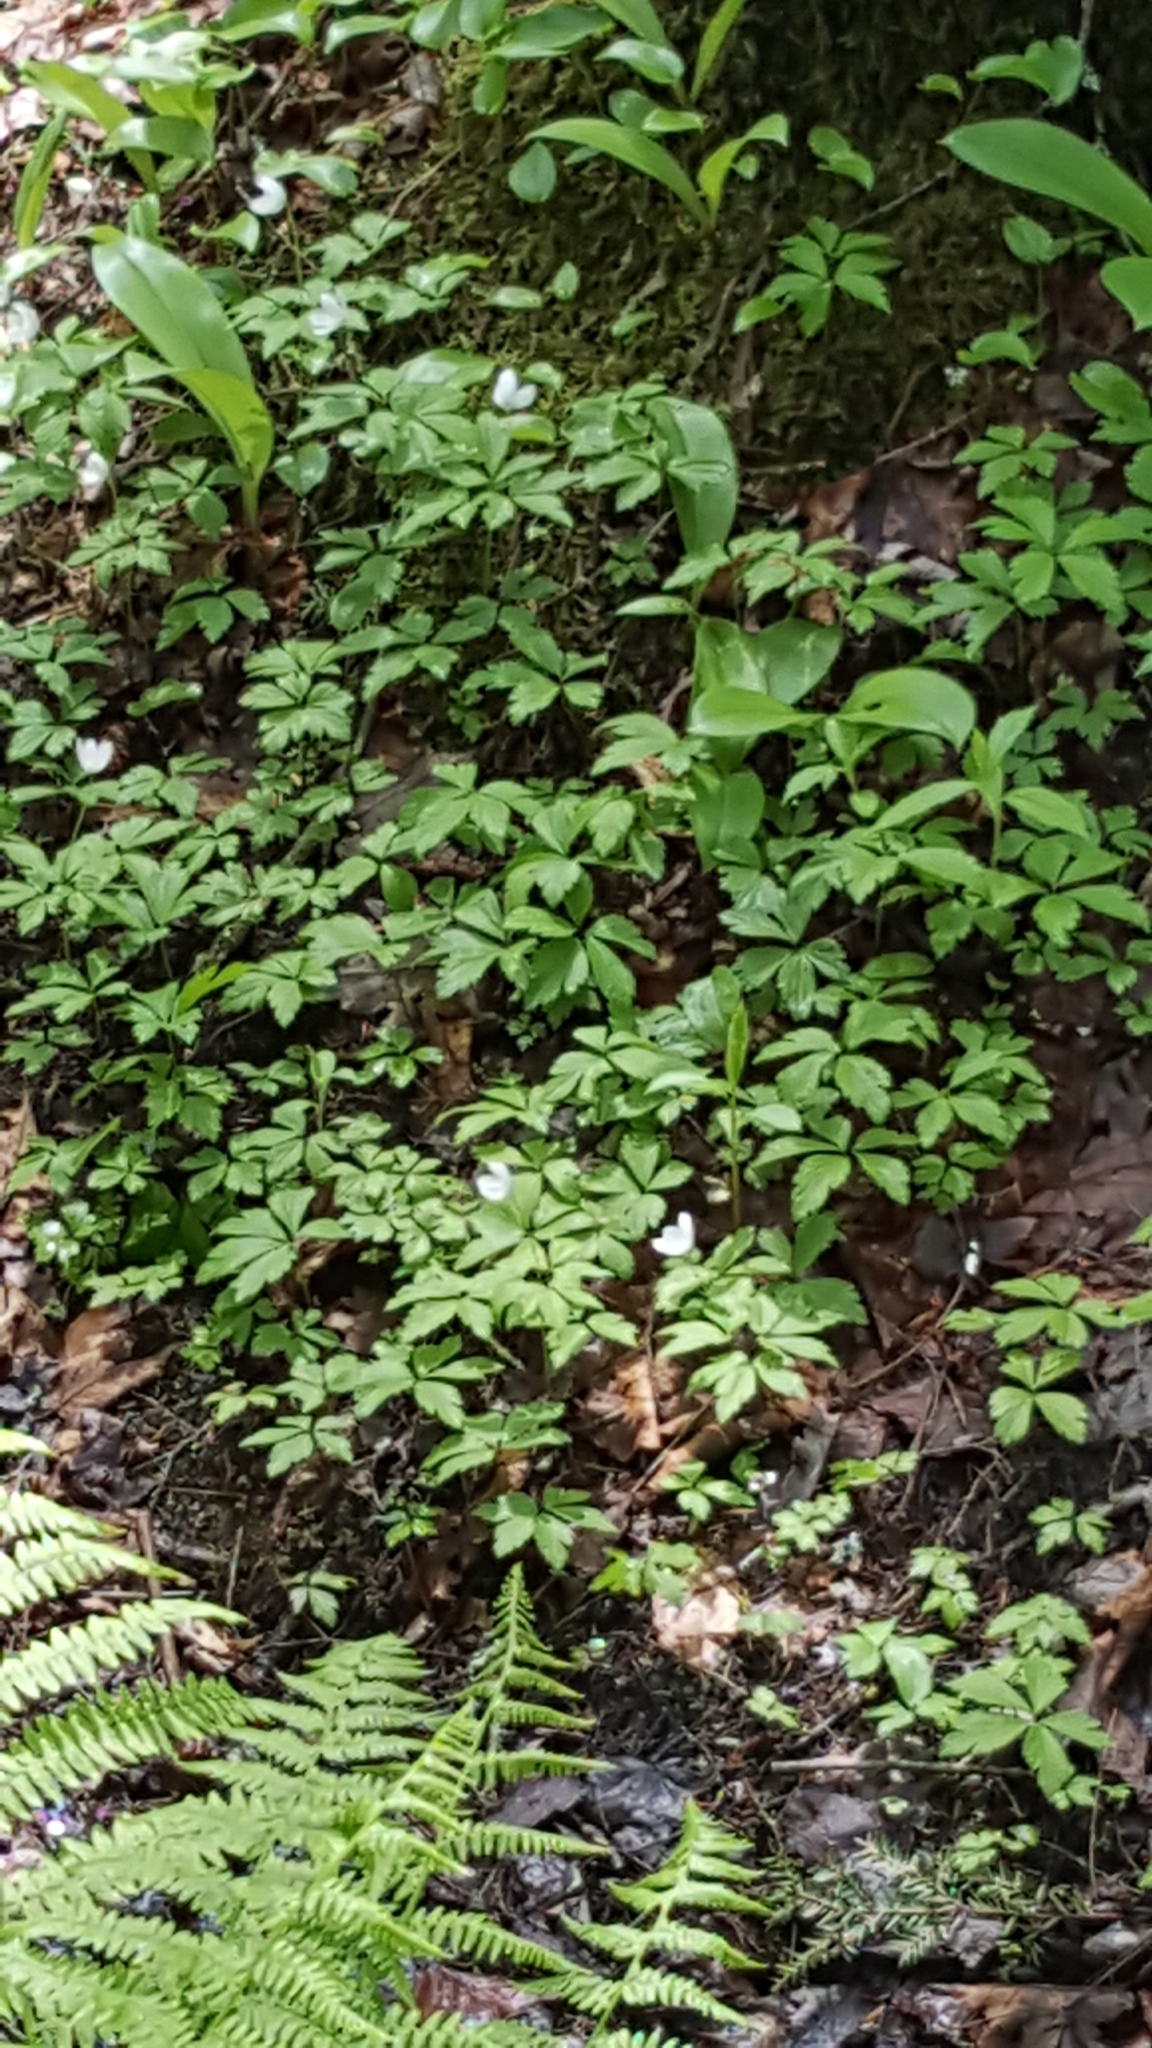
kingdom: Plantae
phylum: Tracheophyta
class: Magnoliopsida
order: Ranunculales
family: Ranunculaceae
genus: Anemone
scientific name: Anemone quinquefolia
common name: Wood anemone
